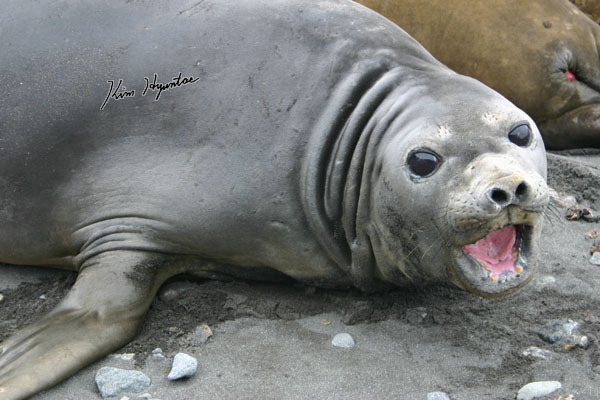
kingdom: Animalia
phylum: Chordata
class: Mammalia
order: Carnivora
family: Phocidae
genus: Mirounga
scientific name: Mirounga leonina
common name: Southern elephant seal
